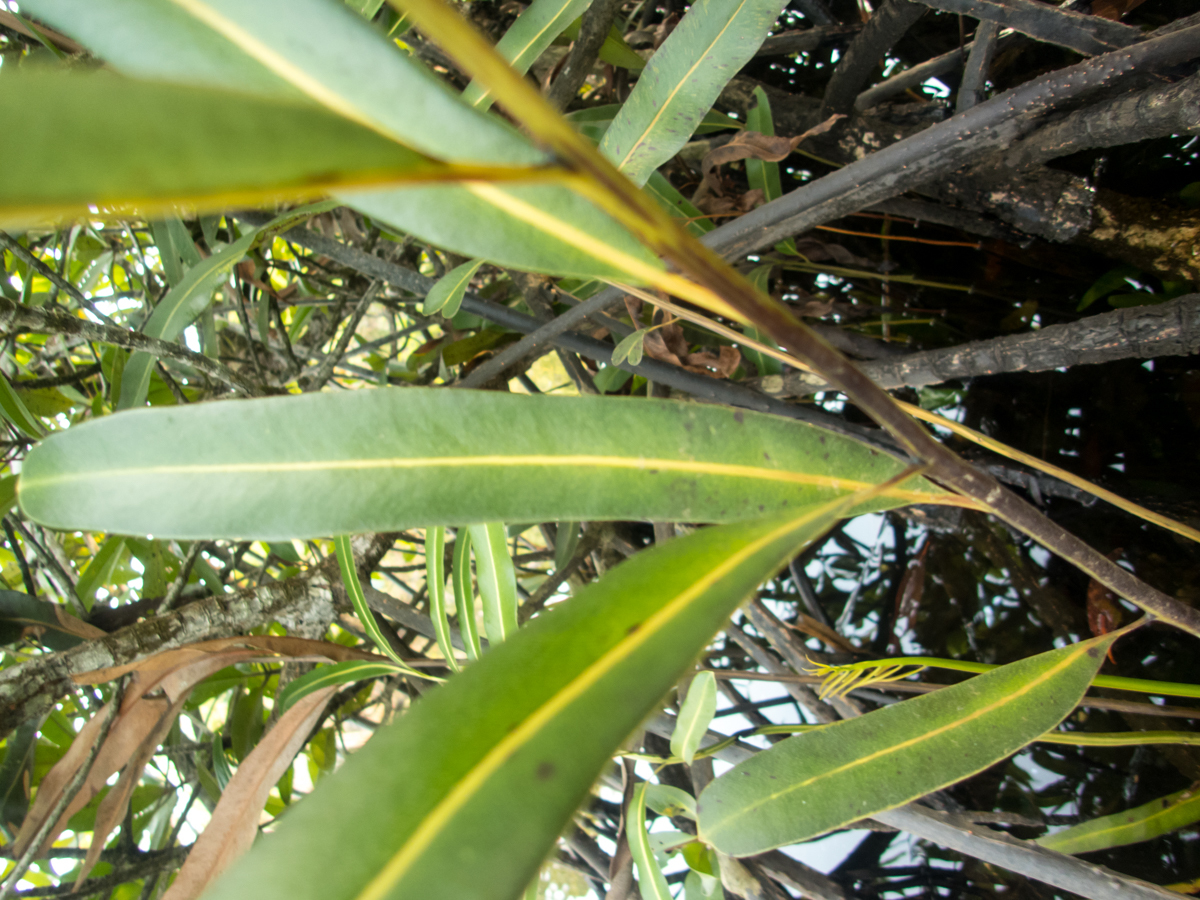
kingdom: Plantae
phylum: Tracheophyta
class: Polypodiopsida
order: Polypodiales
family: Pteridaceae
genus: Acrostichum
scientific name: Acrostichum aureum
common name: Leather fern
